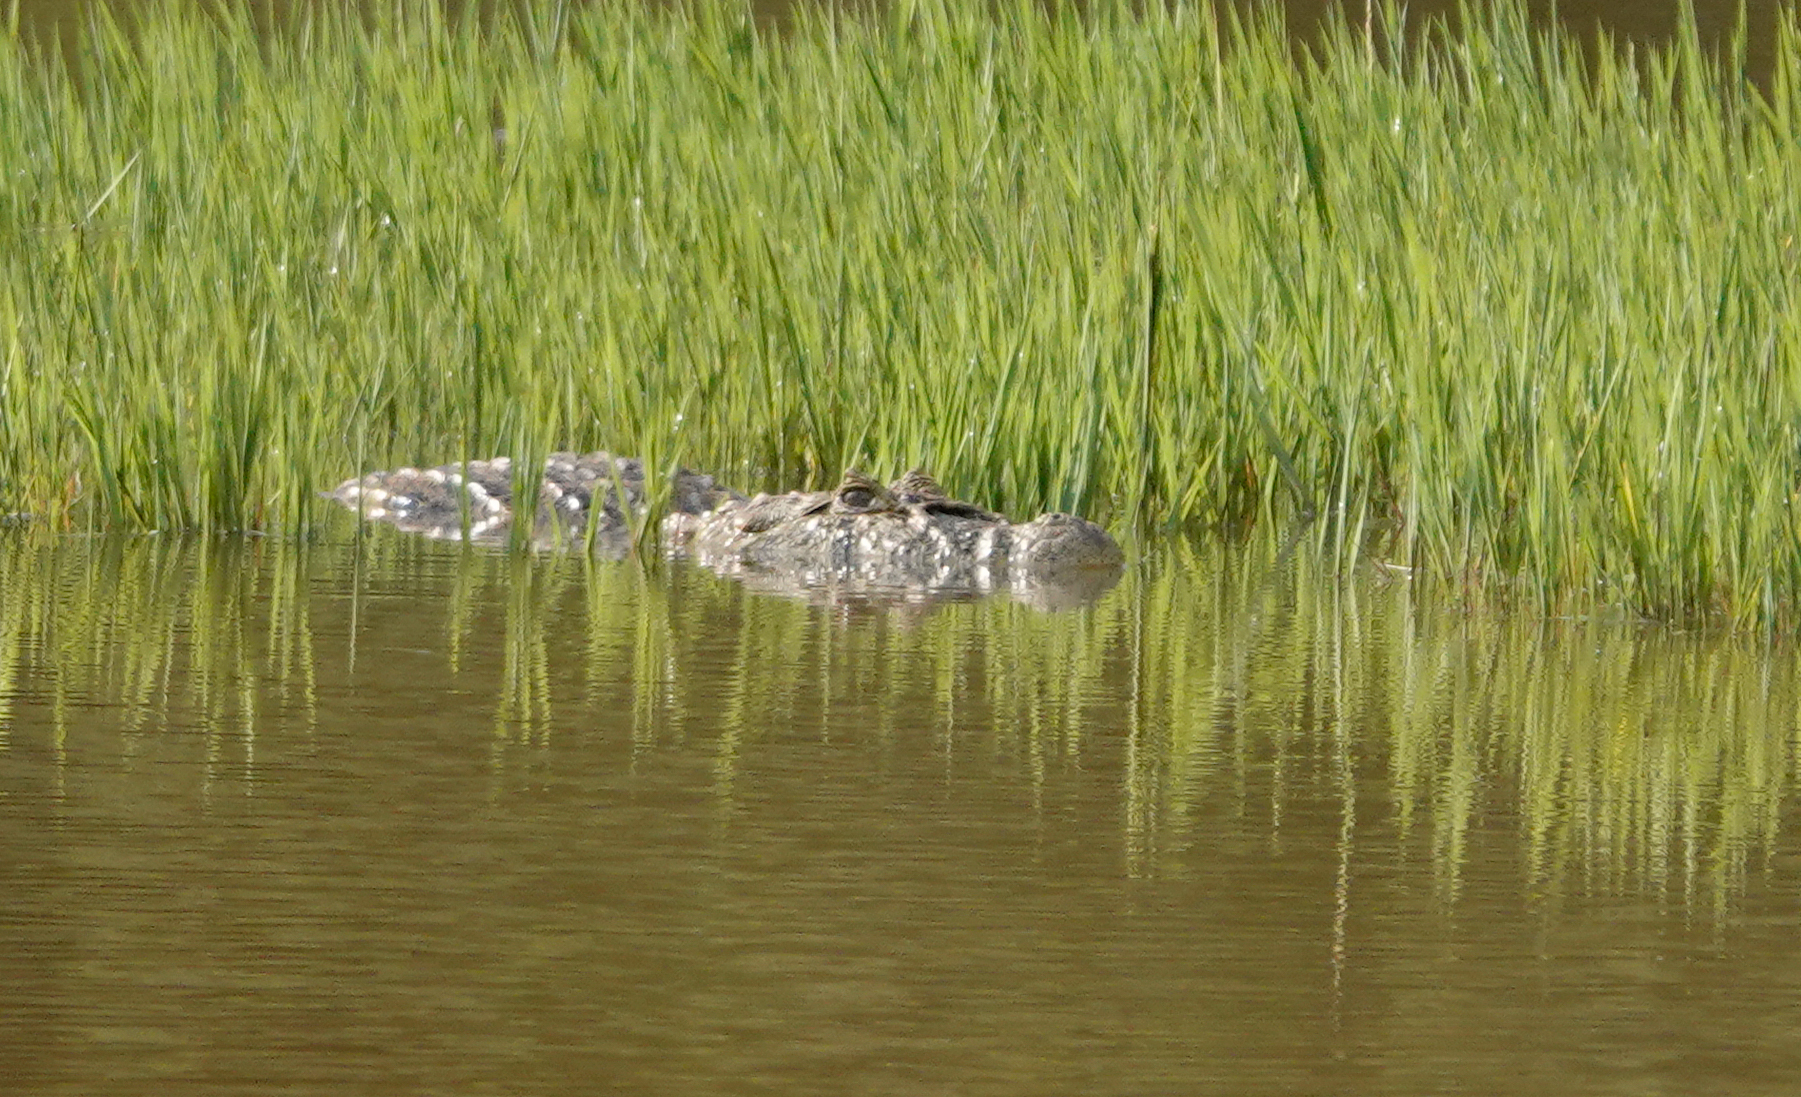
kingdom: Animalia
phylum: Chordata
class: Crocodylia
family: Alligatoridae
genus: Caiman
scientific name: Caiman latirostris
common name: Broad-snouted caiman
